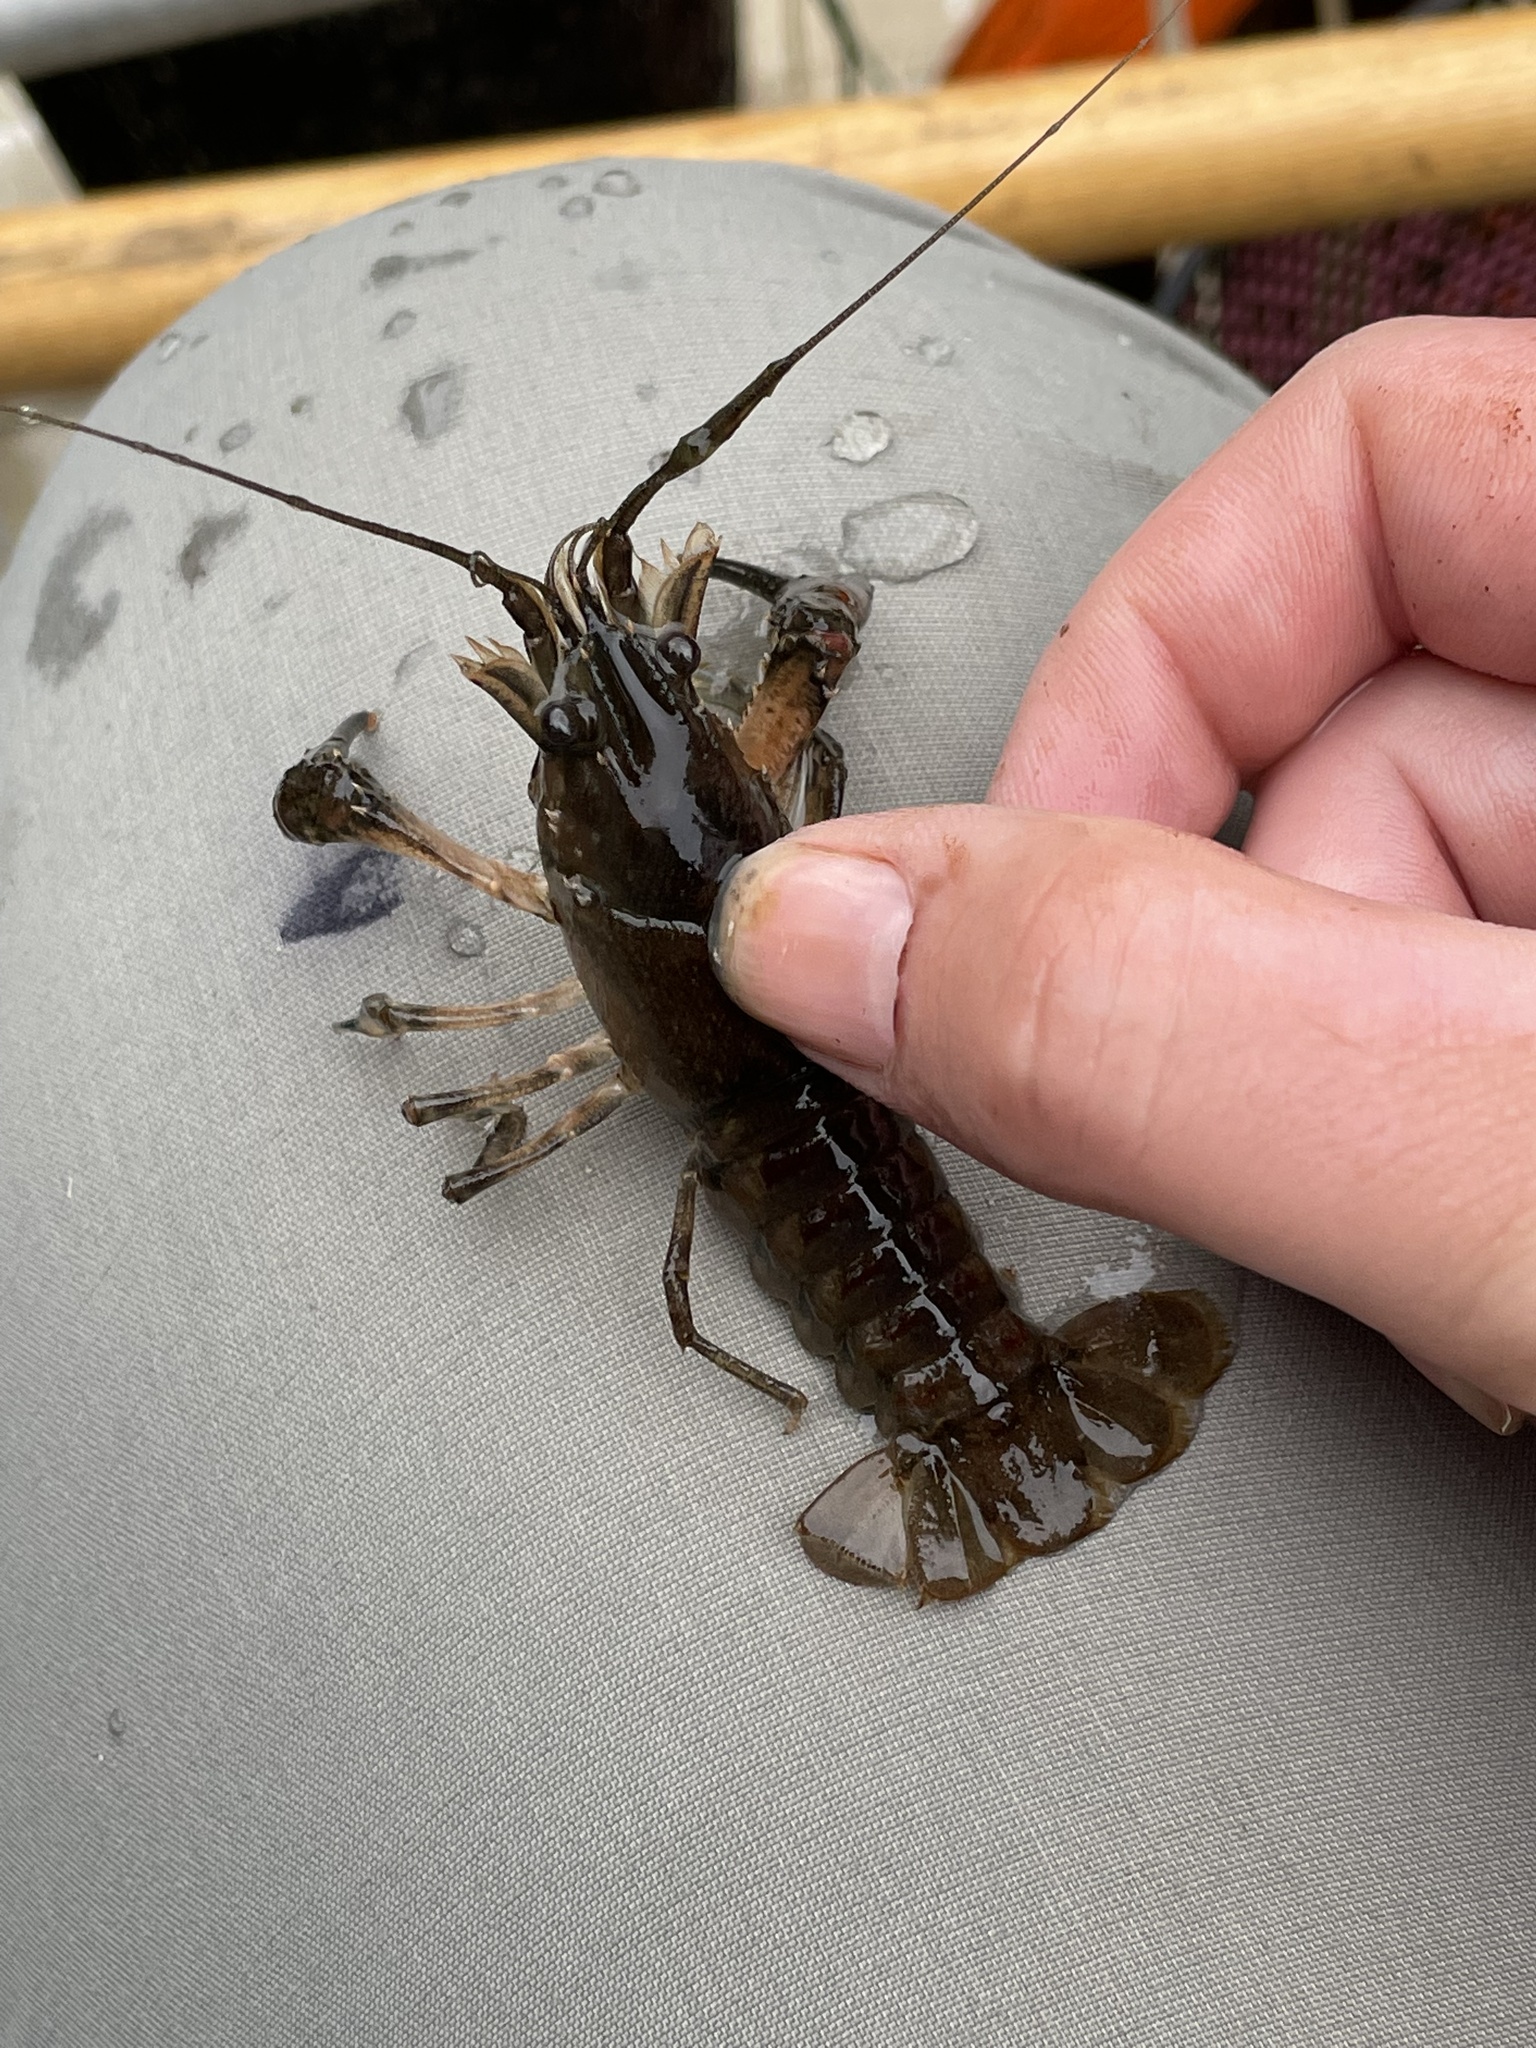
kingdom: Animalia
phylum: Arthropoda
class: Malacostraca
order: Decapoda
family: Cambaridae
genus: Faxonius
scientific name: Faxonius limosus
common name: American crayfish
